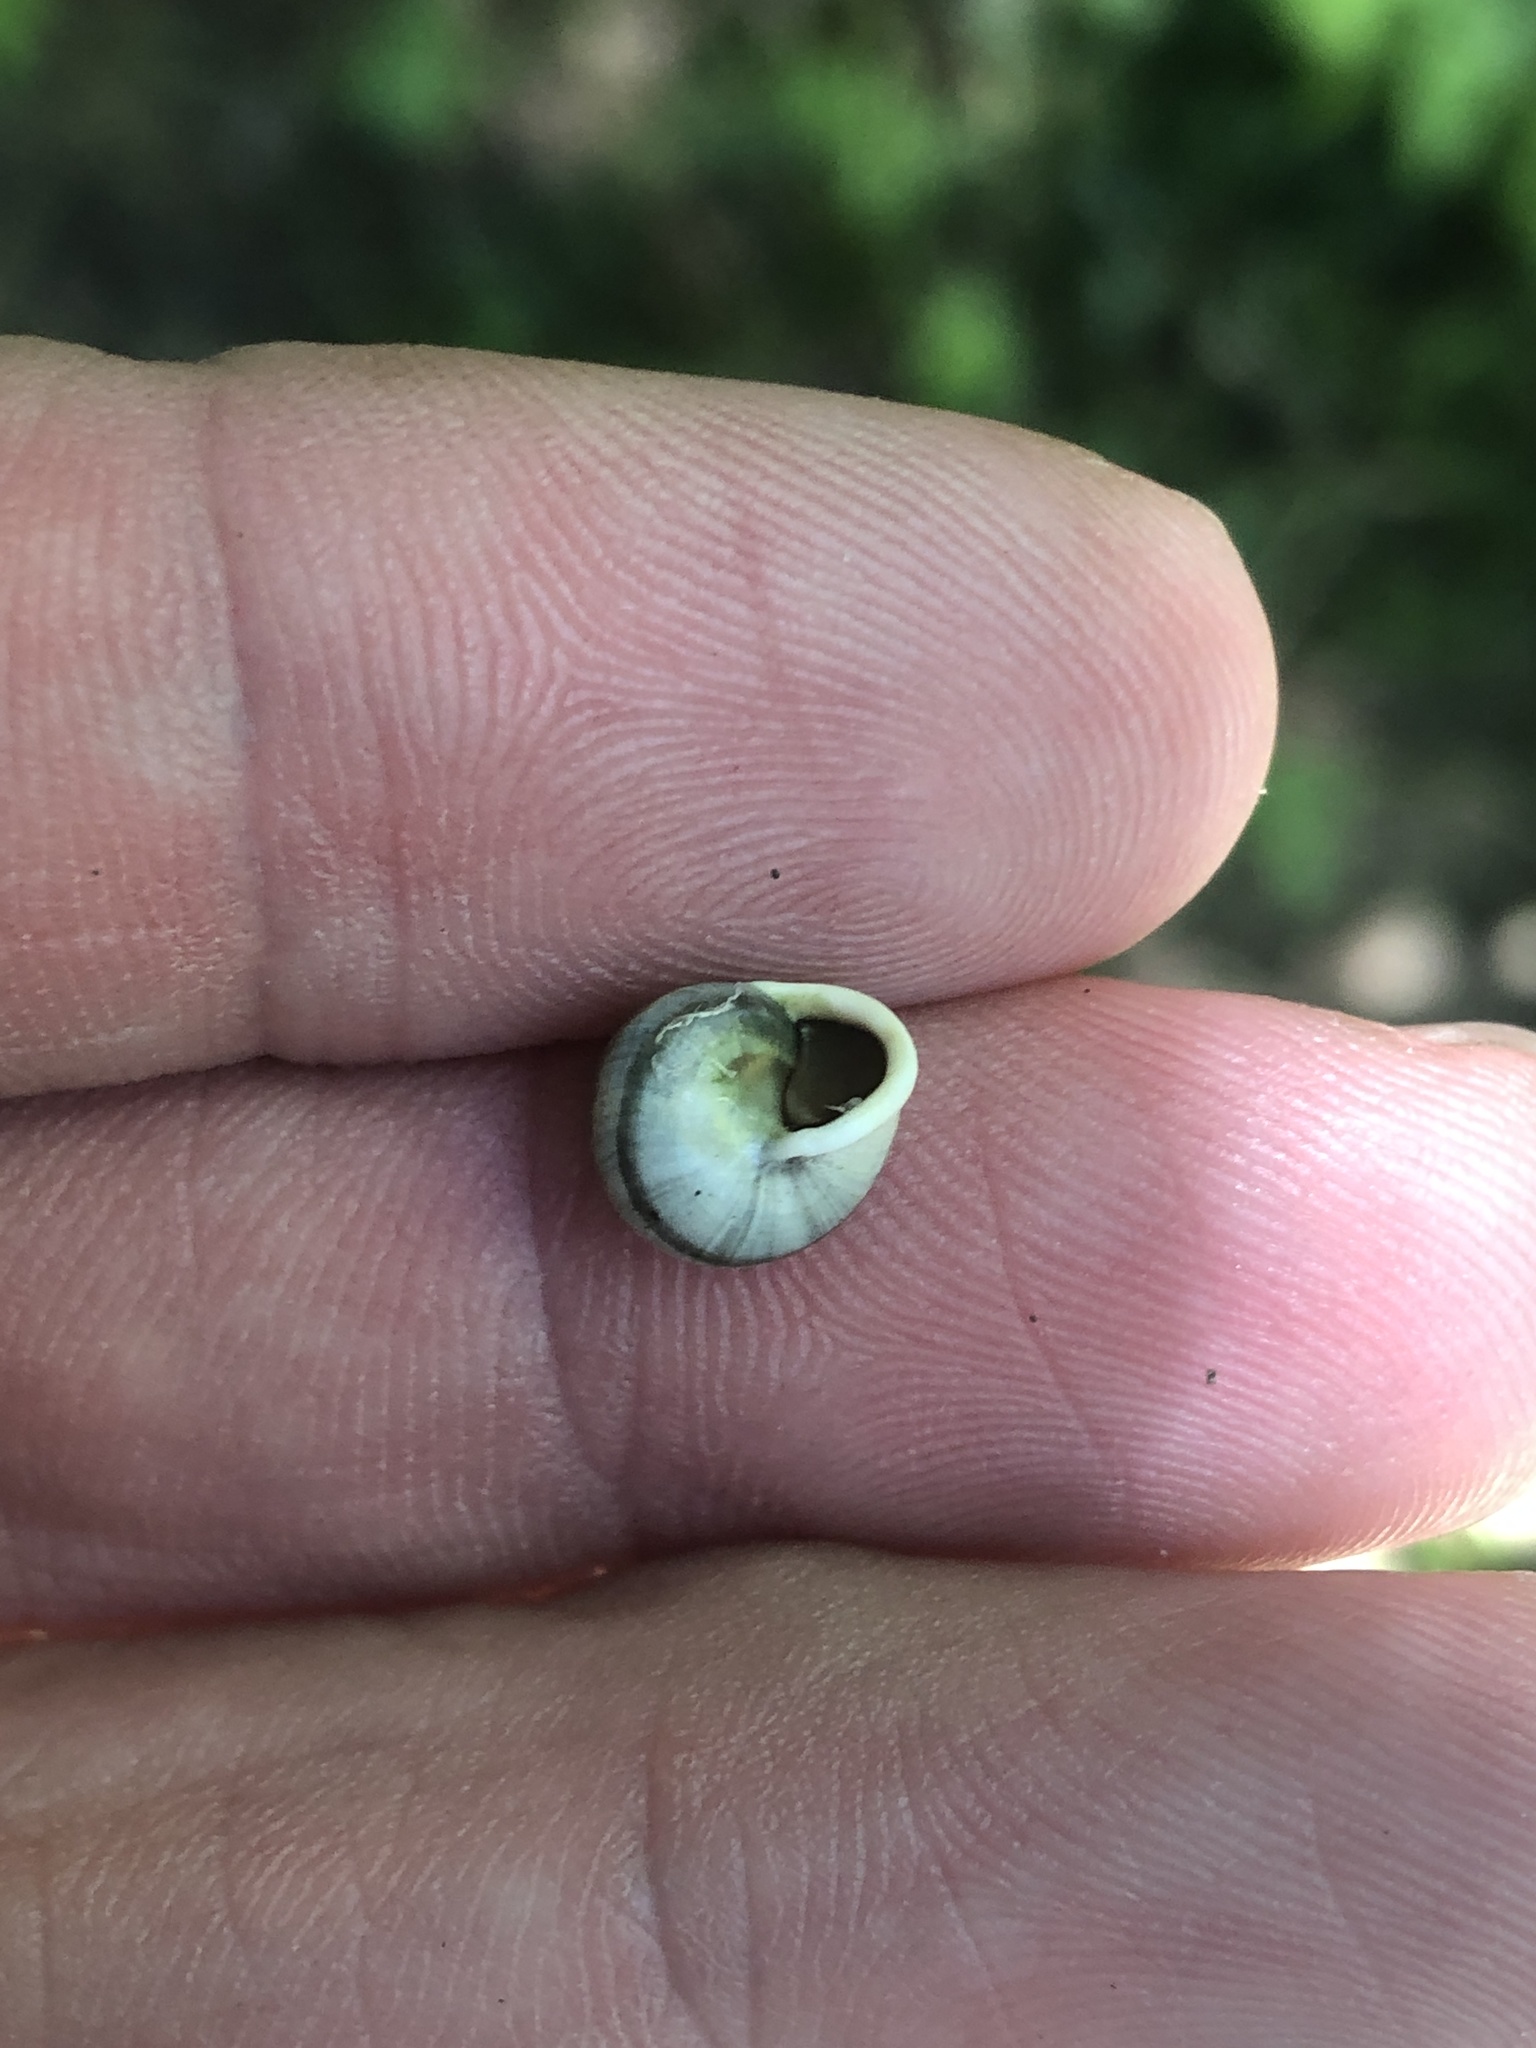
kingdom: Animalia
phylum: Mollusca
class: Gastropoda
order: Cycloneritida
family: Helicinidae
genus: Helicina
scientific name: Helicina orbiculata
